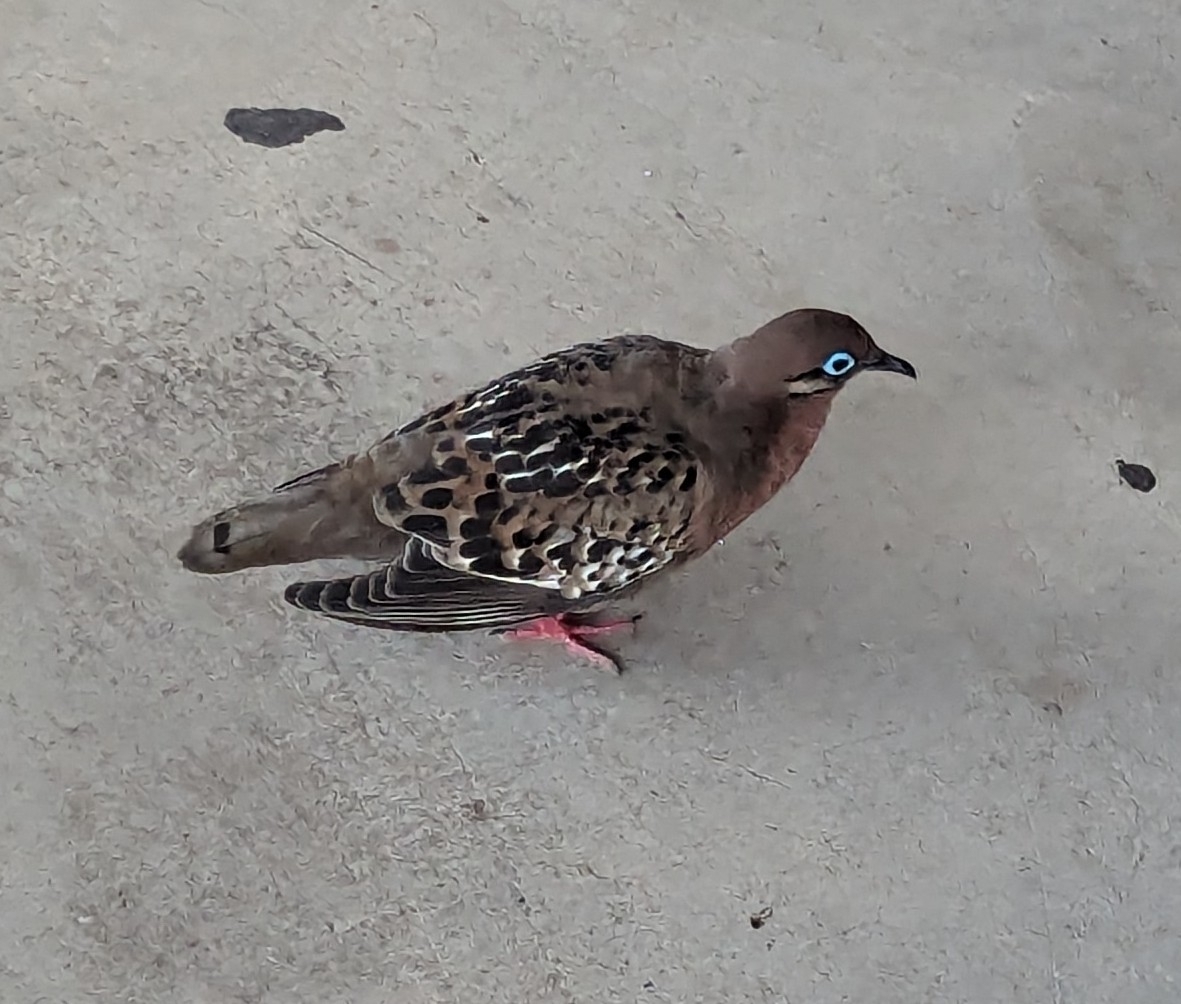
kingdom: Animalia
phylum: Chordata
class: Aves
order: Columbiformes
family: Columbidae
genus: Zenaida
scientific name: Zenaida galapagoensis
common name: Galapagos dove
